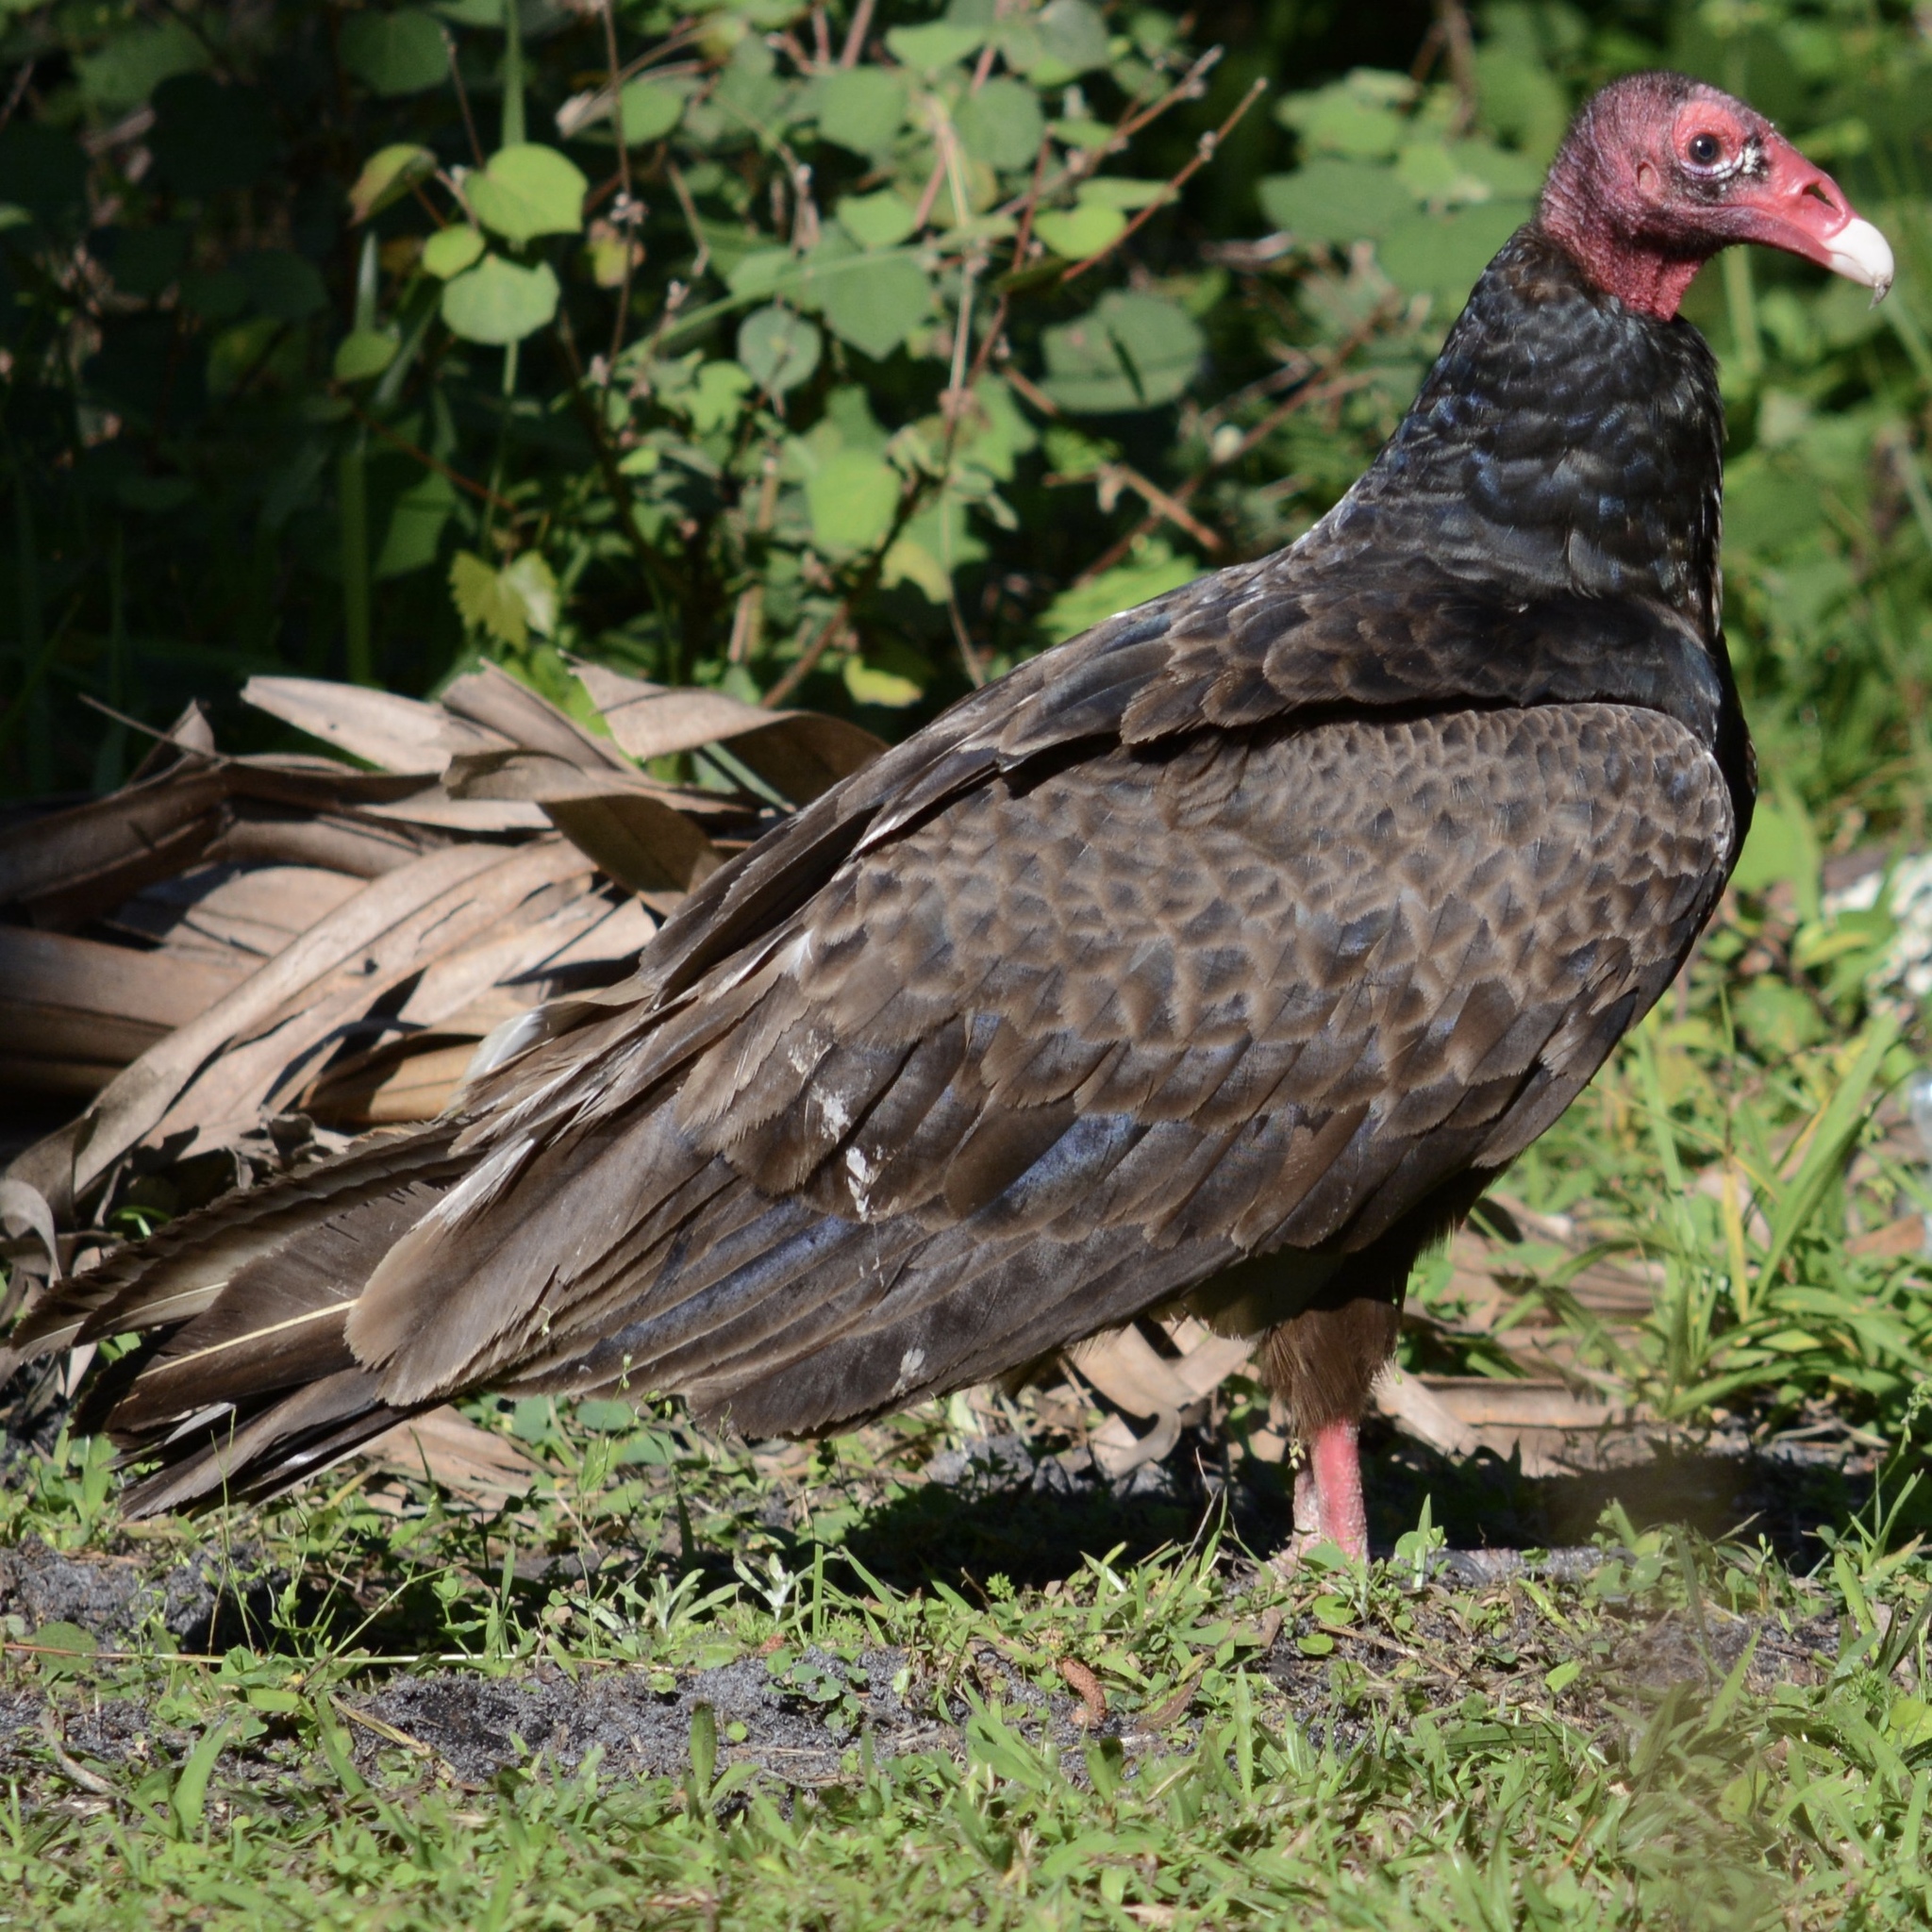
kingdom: Animalia
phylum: Chordata
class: Aves
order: Accipitriformes
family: Cathartidae
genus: Cathartes
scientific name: Cathartes aura
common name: Turkey vulture
